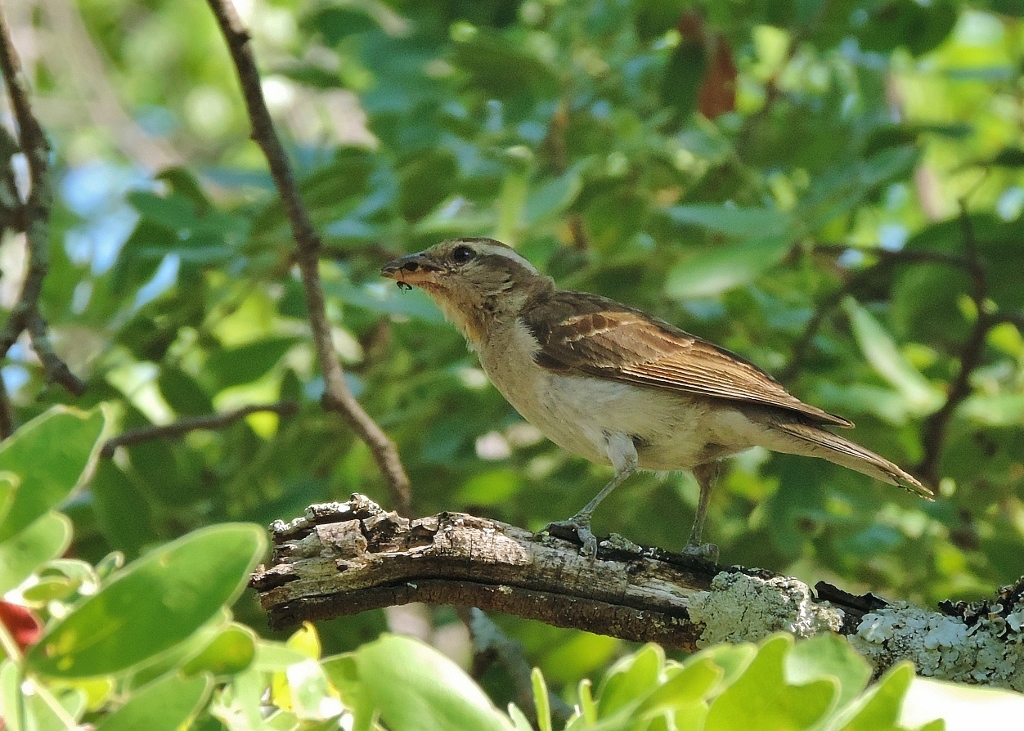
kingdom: Animalia
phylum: Chordata
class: Aves
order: Passeriformes
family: Passeridae
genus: Gymnoris
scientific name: Gymnoris superciliaris
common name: Yellow-throated petronia
